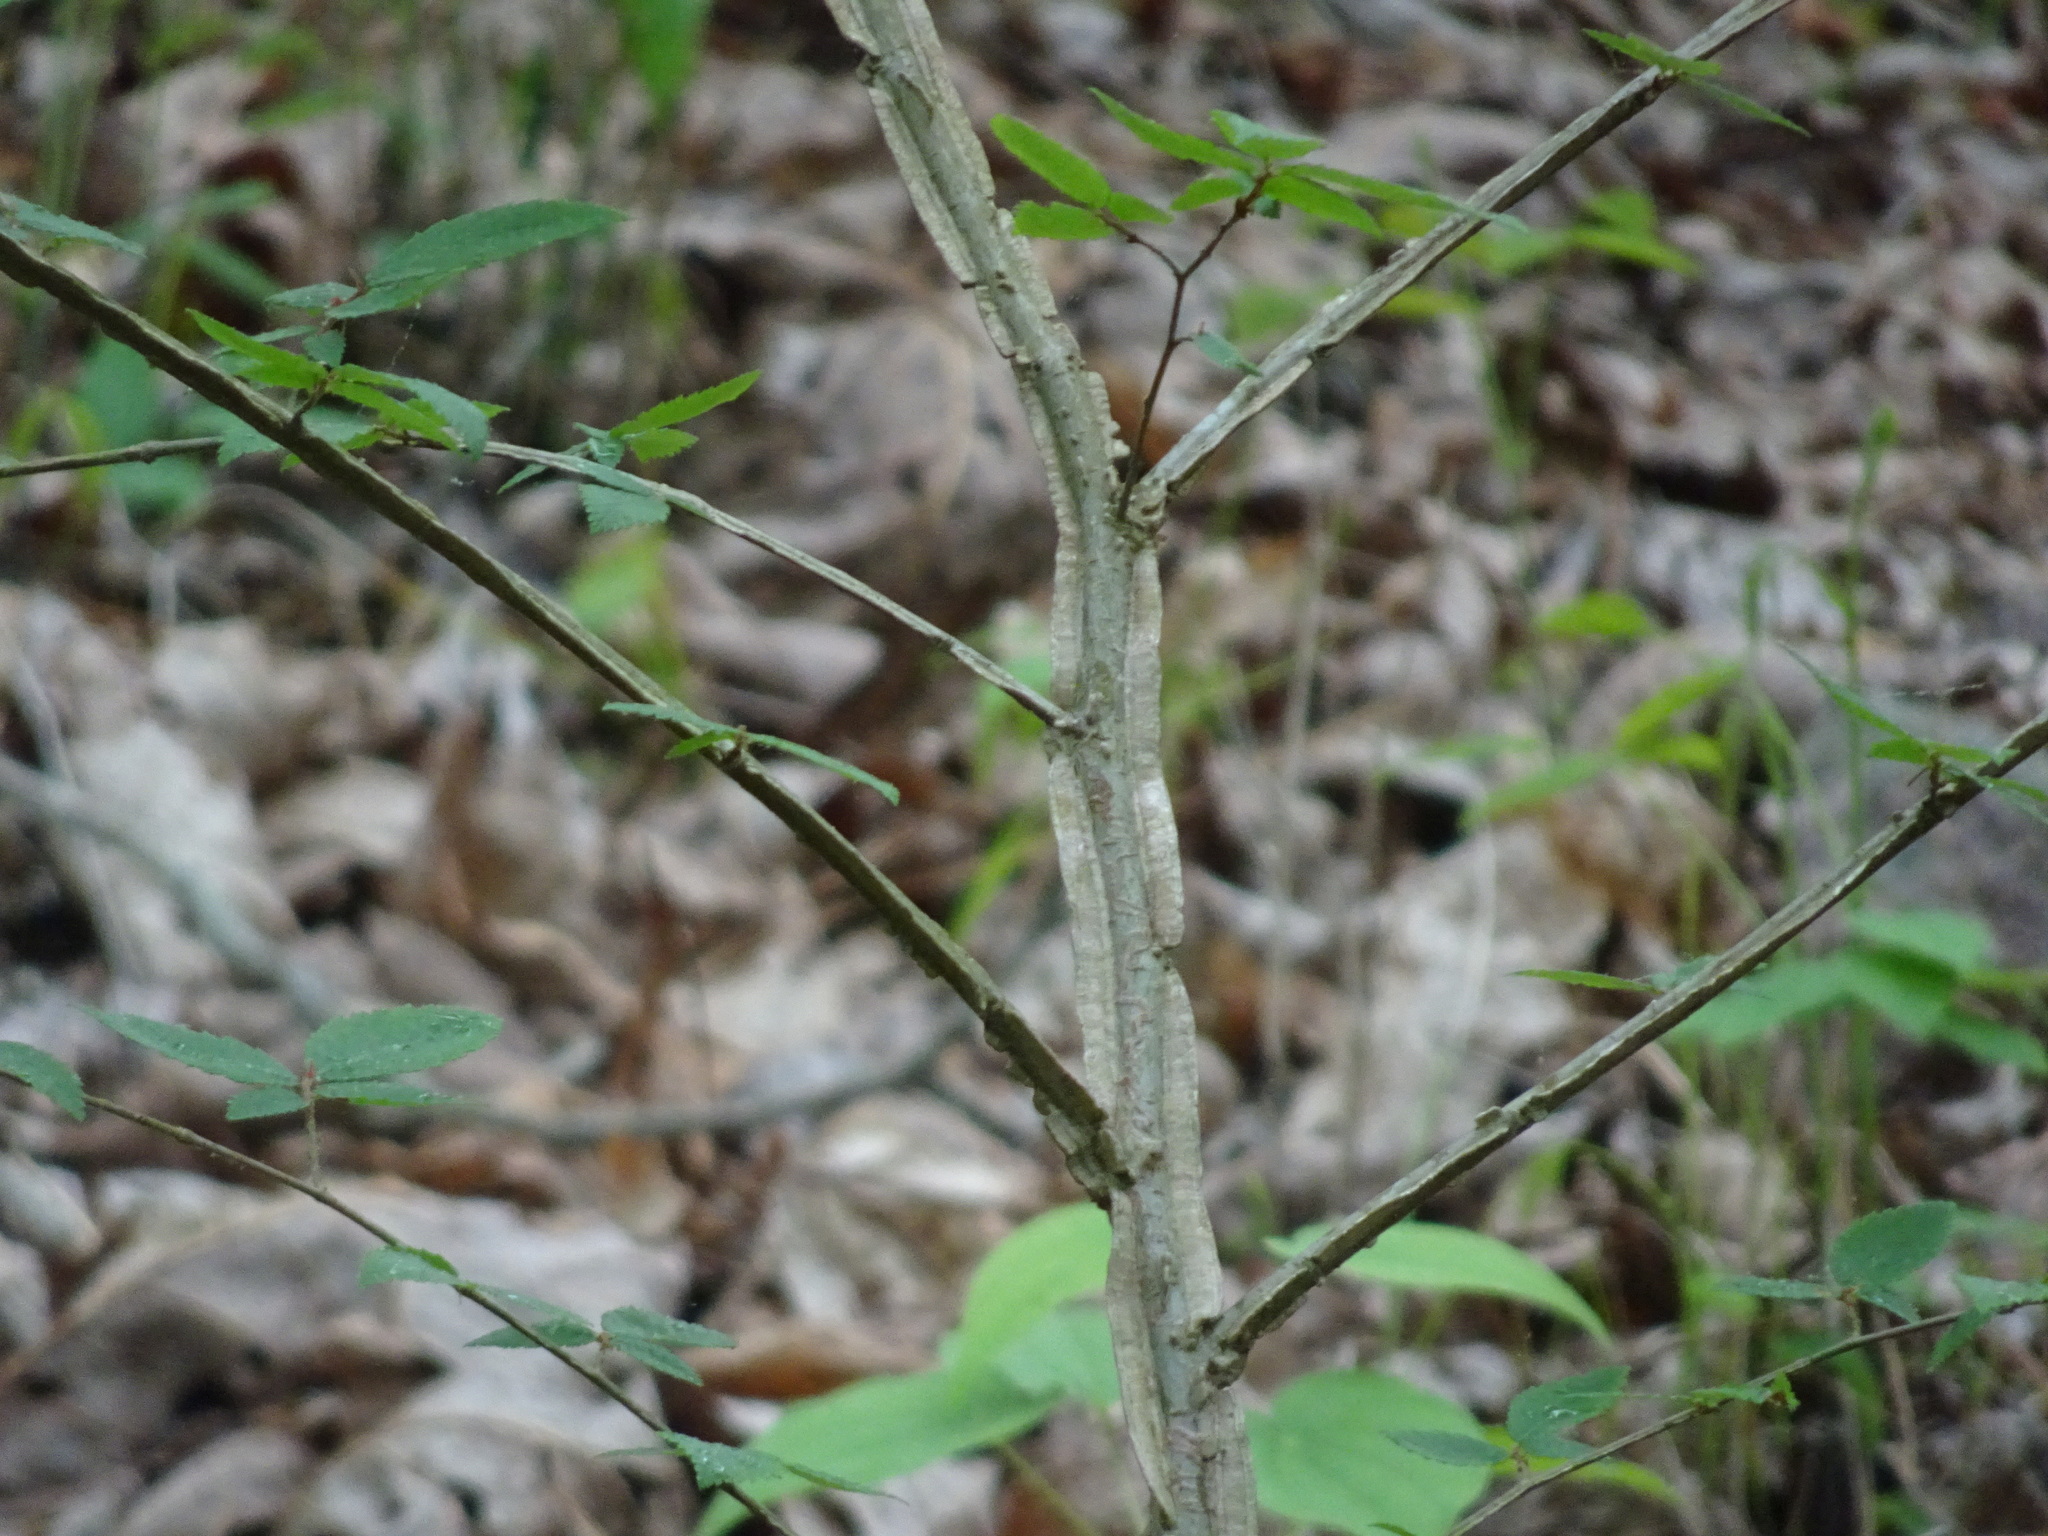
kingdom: Plantae
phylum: Tracheophyta
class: Magnoliopsida
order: Rosales
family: Ulmaceae
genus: Ulmus
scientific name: Ulmus alata
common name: Winged elm
